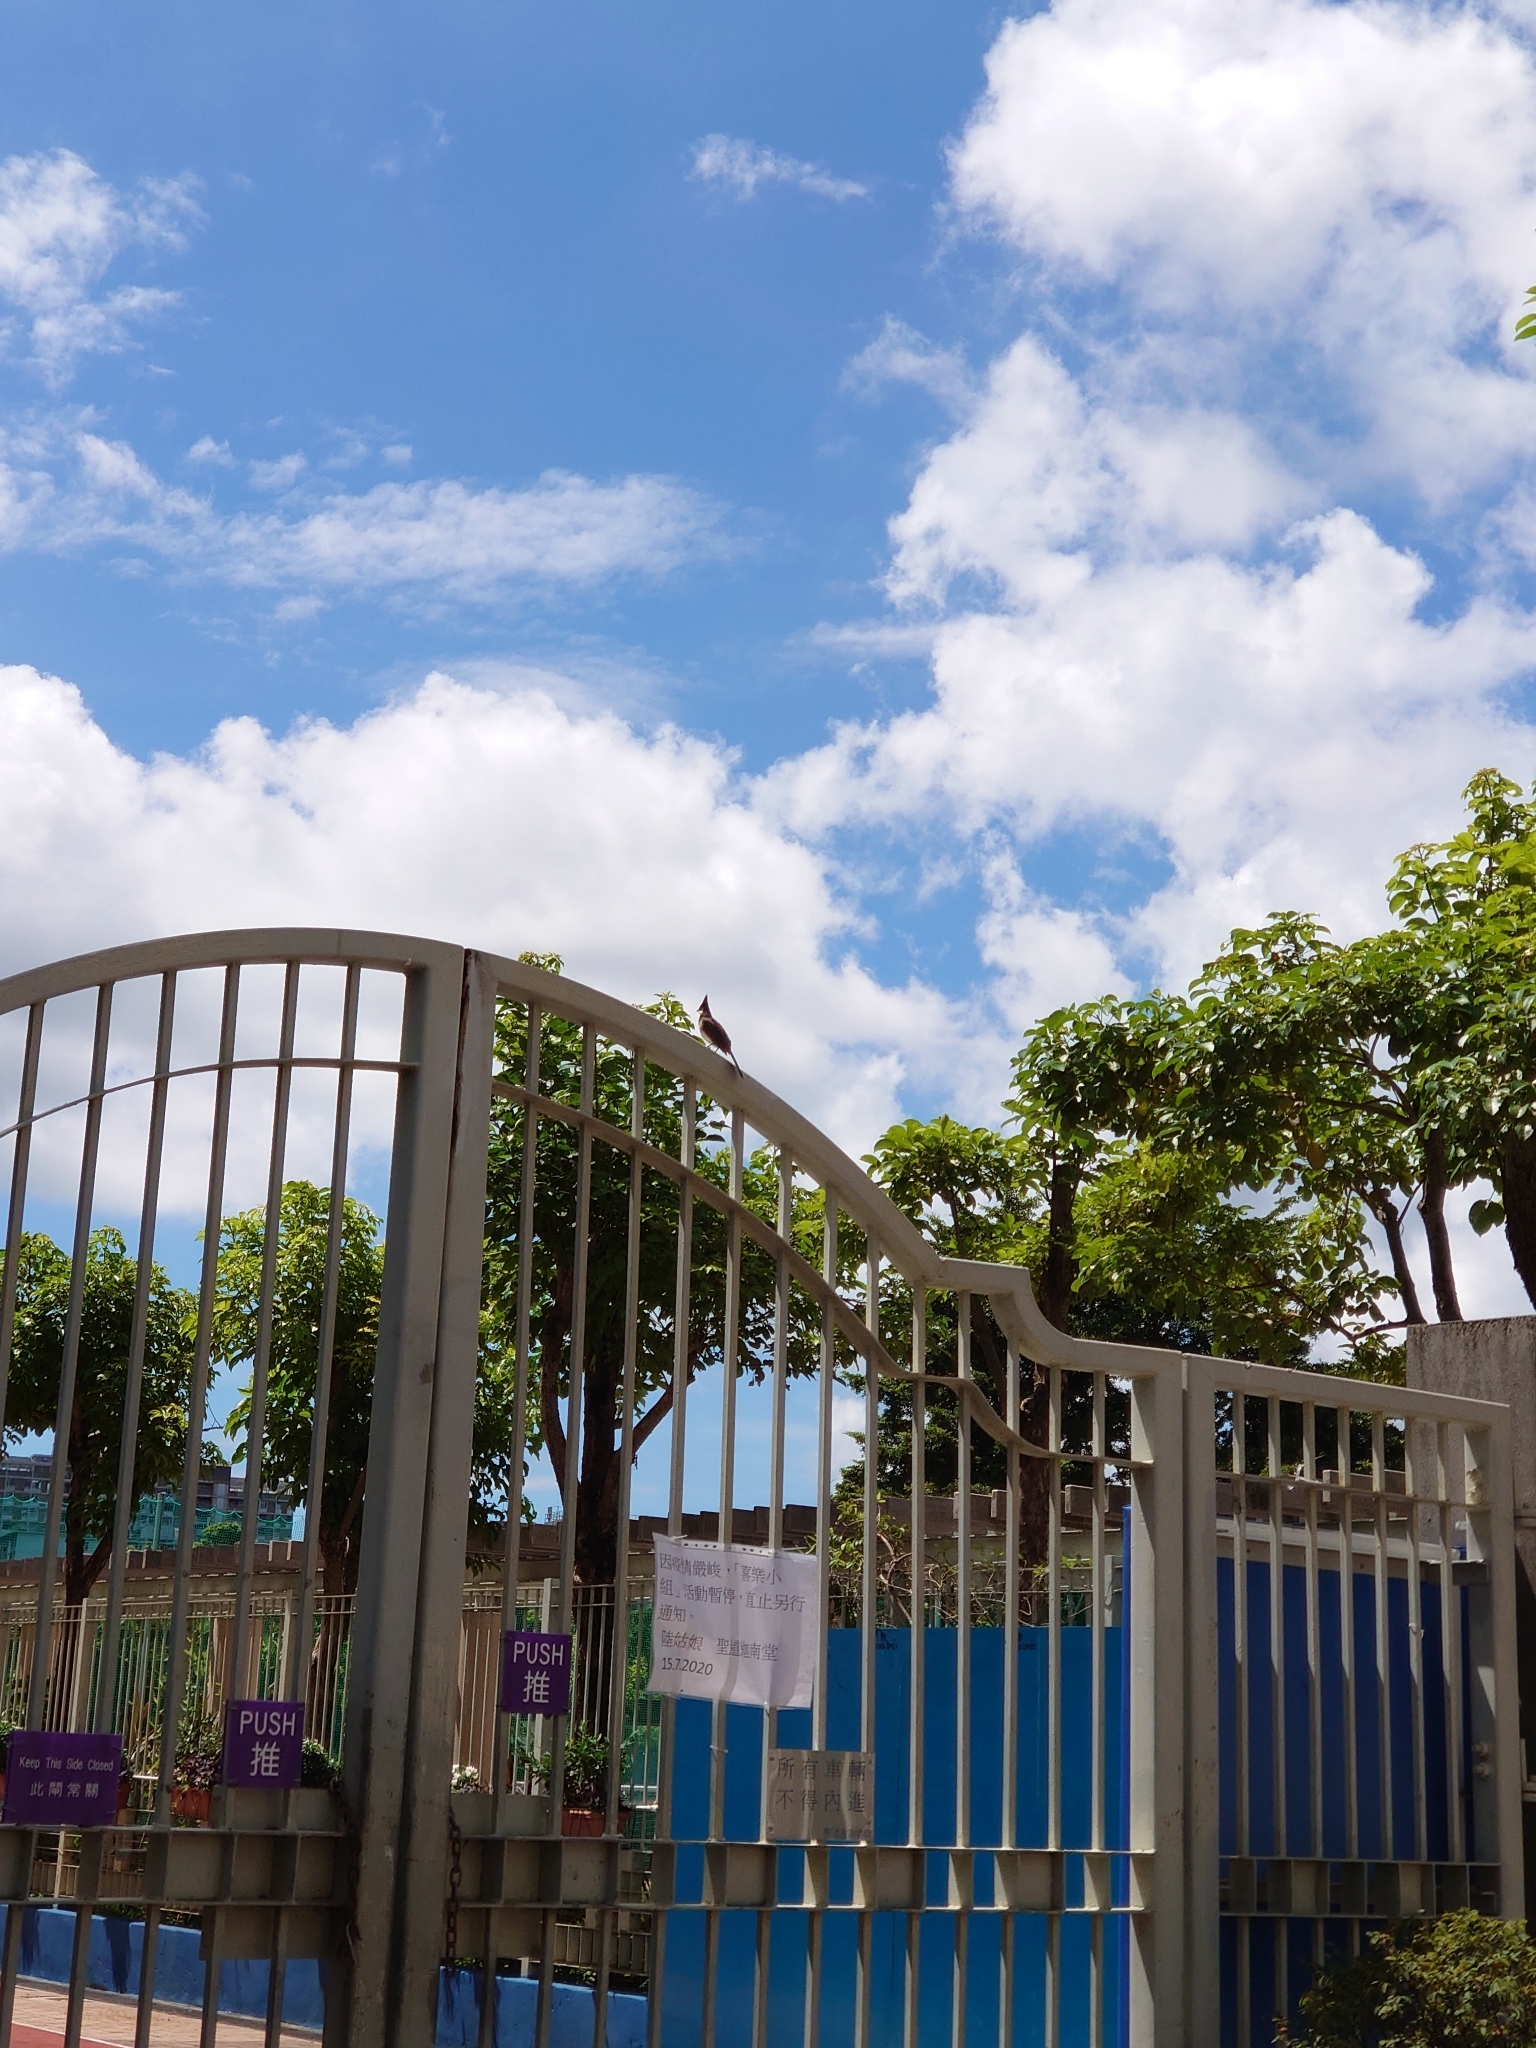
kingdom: Animalia
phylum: Chordata
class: Aves
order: Passeriformes
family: Pycnonotidae
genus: Pycnonotus
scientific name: Pycnonotus jocosus
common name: Red-whiskered bulbul
